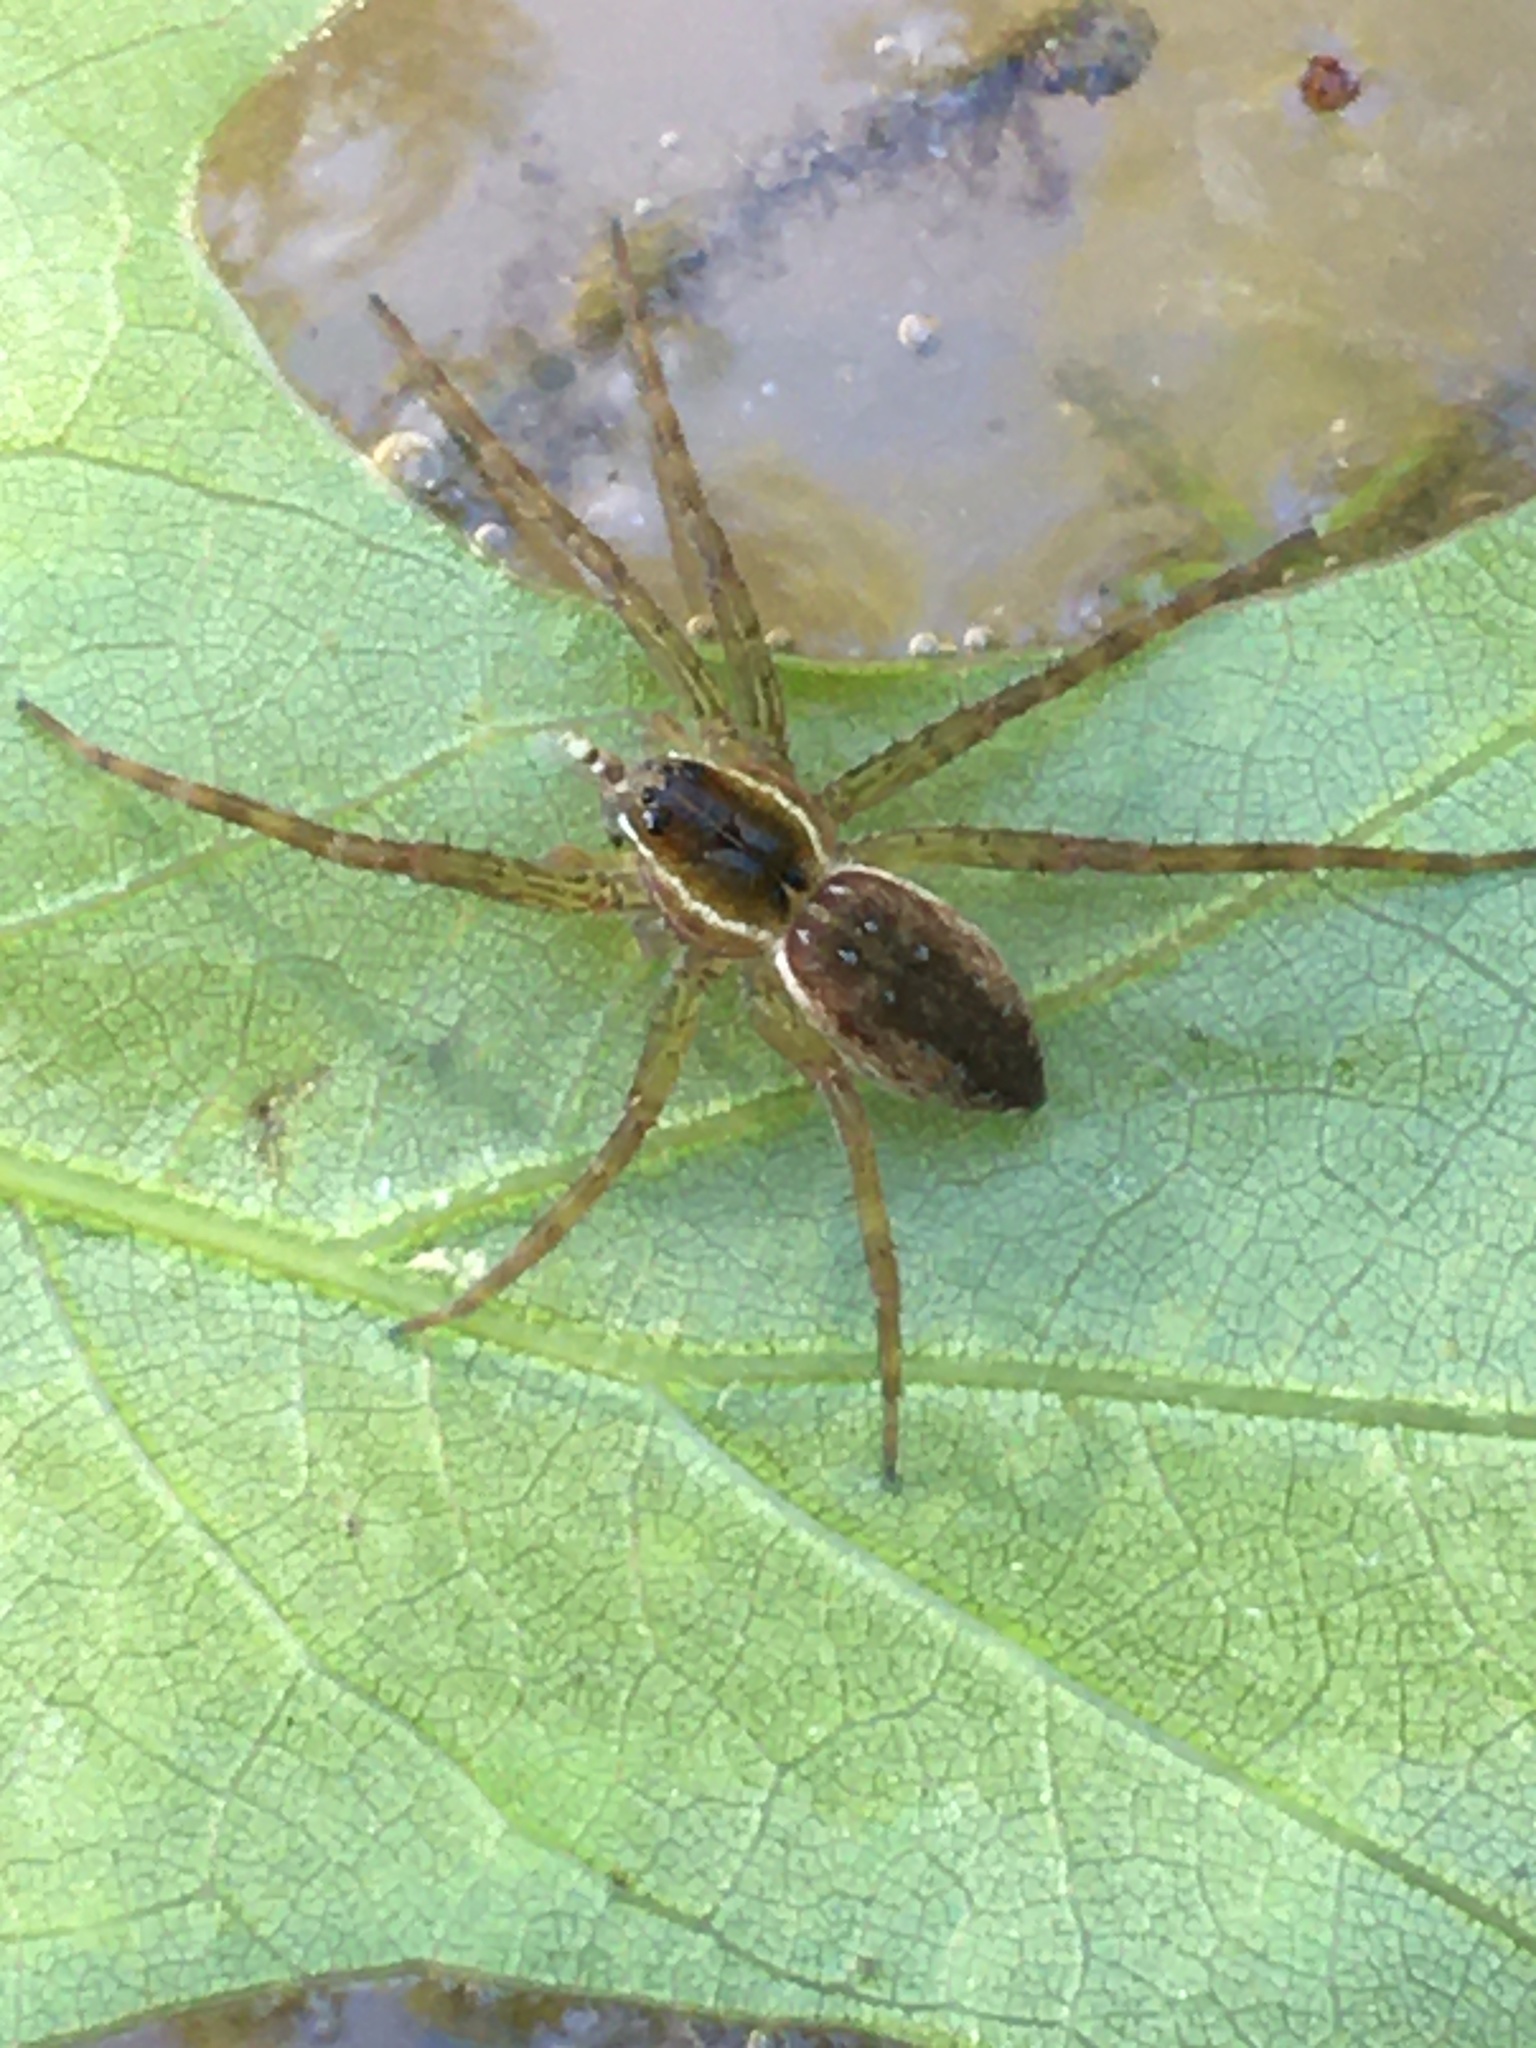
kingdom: Animalia
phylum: Arthropoda
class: Arachnida
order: Araneae
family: Pisauridae
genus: Dolomedes
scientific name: Dolomedes triton
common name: Six-spotted fishing spider
